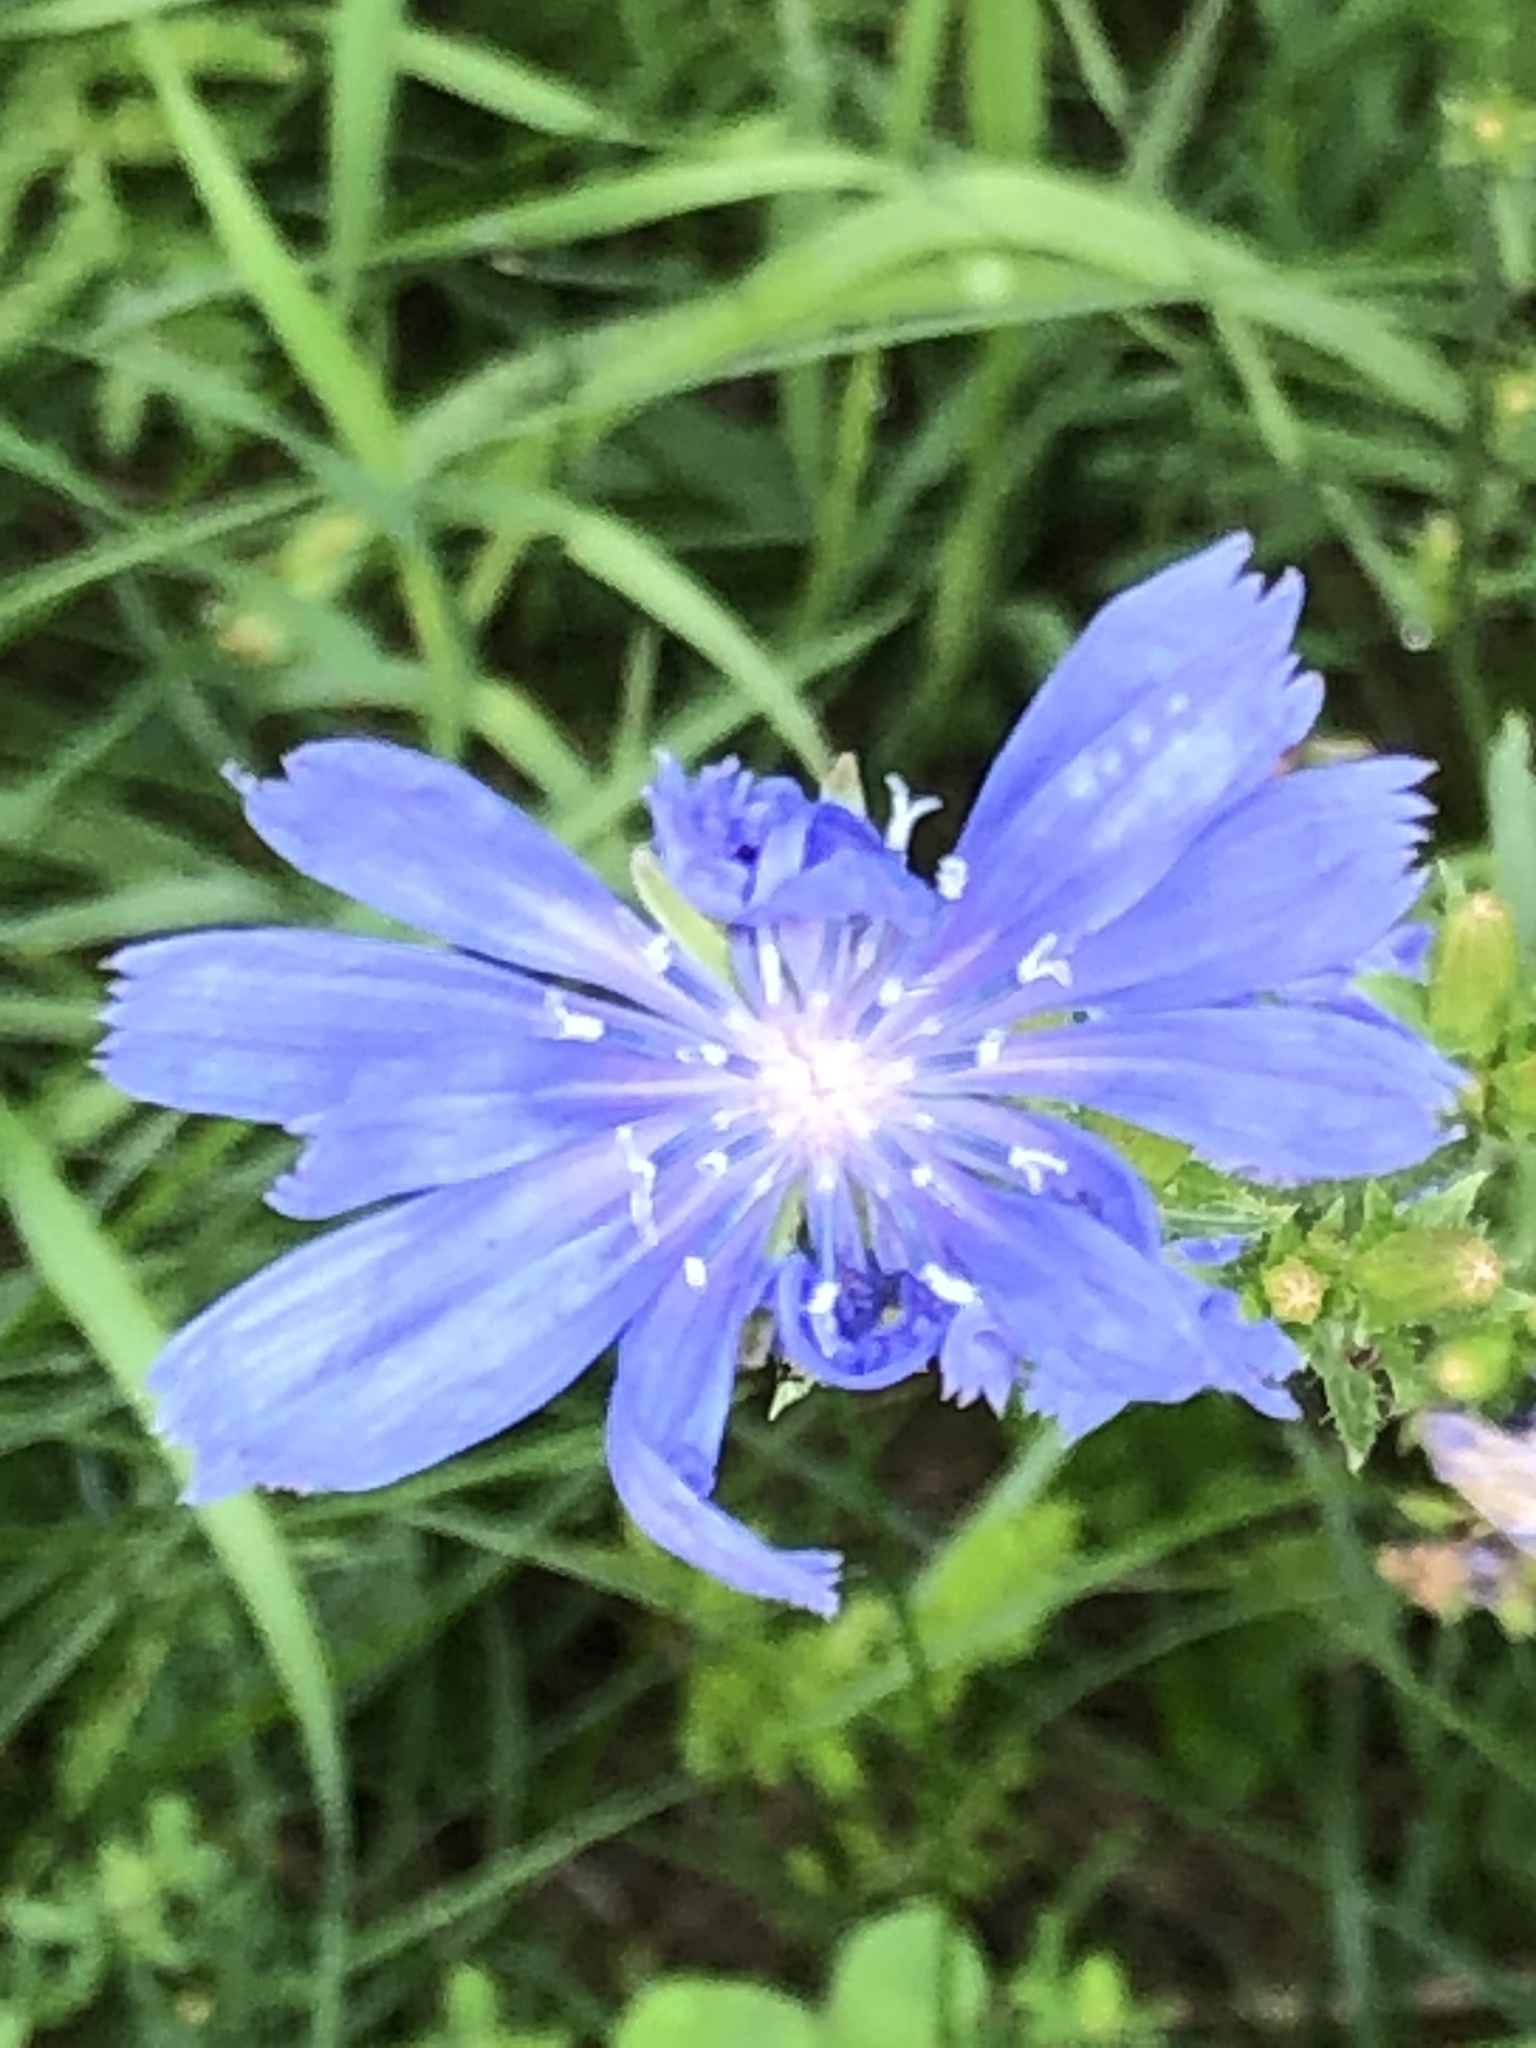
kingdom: Plantae
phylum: Tracheophyta
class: Magnoliopsida
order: Asterales
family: Asteraceae
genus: Cichorium
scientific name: Cichorium intybus
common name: Chicory
